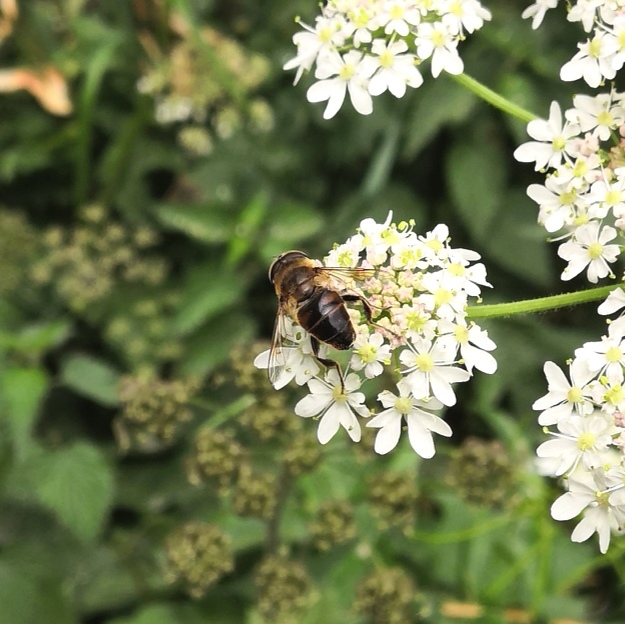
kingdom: Animalia
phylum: Arthropoda
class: Insecta
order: Diptera
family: Syrphidae
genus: Eristalis
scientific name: Eristalis tenax
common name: Drone fly
